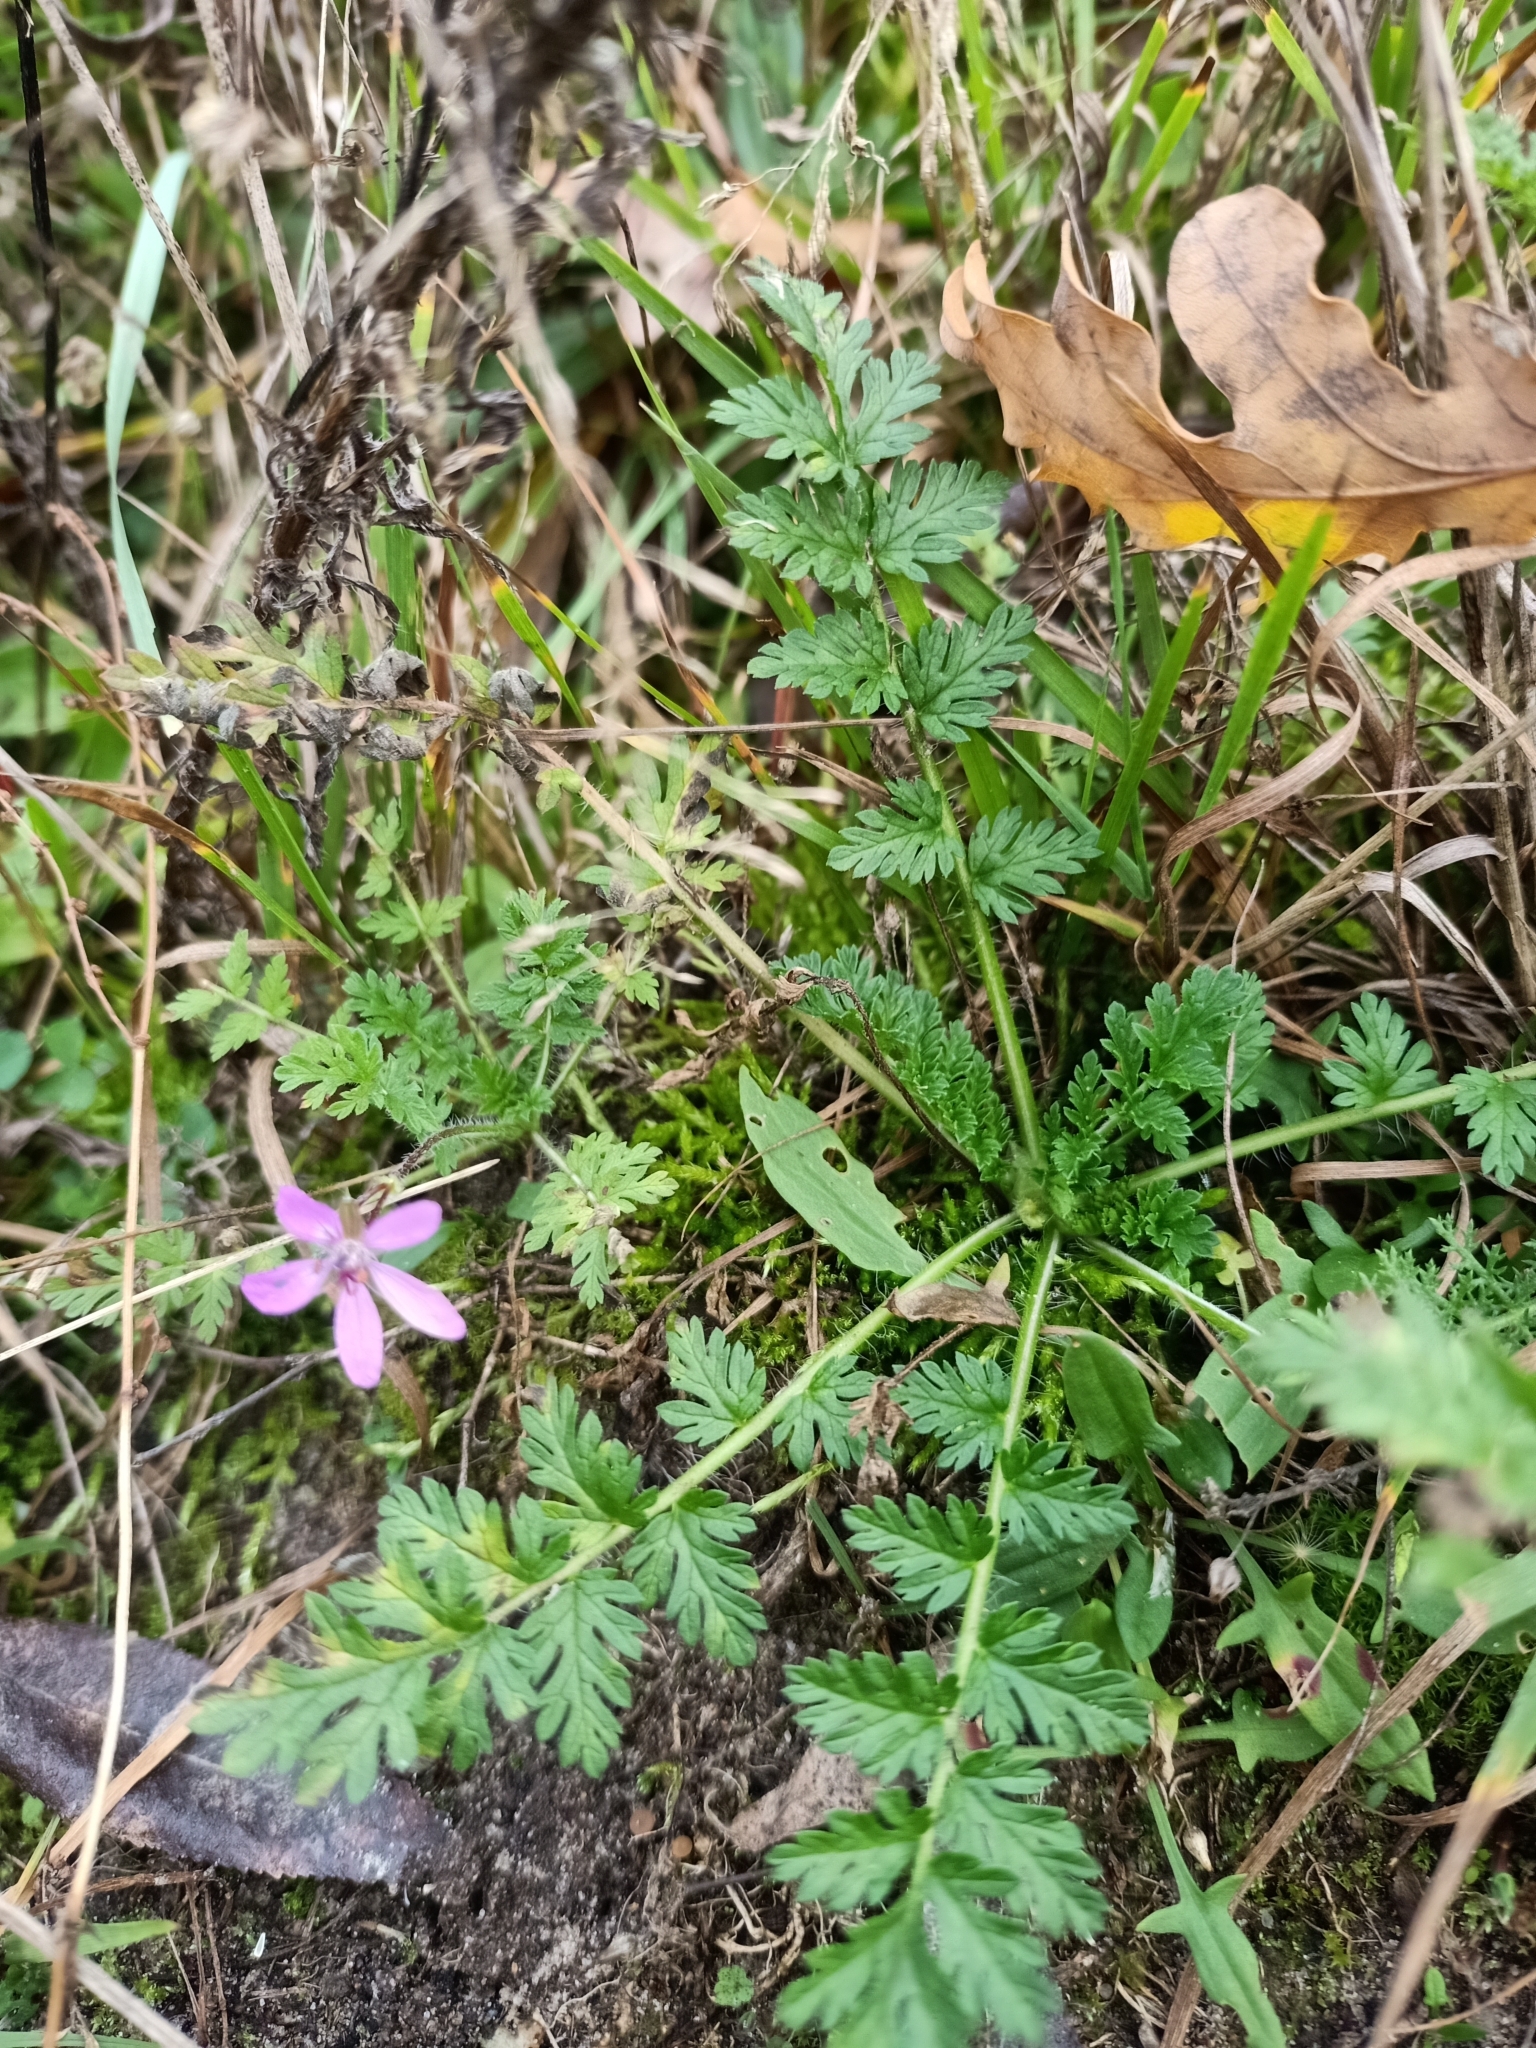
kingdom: Plantae
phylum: Tracheophyta
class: Magnoliopsida
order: Geraniales
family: Geraniaceae
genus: Erodium
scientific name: Erodium cicutarium
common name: Common stork's-bill
